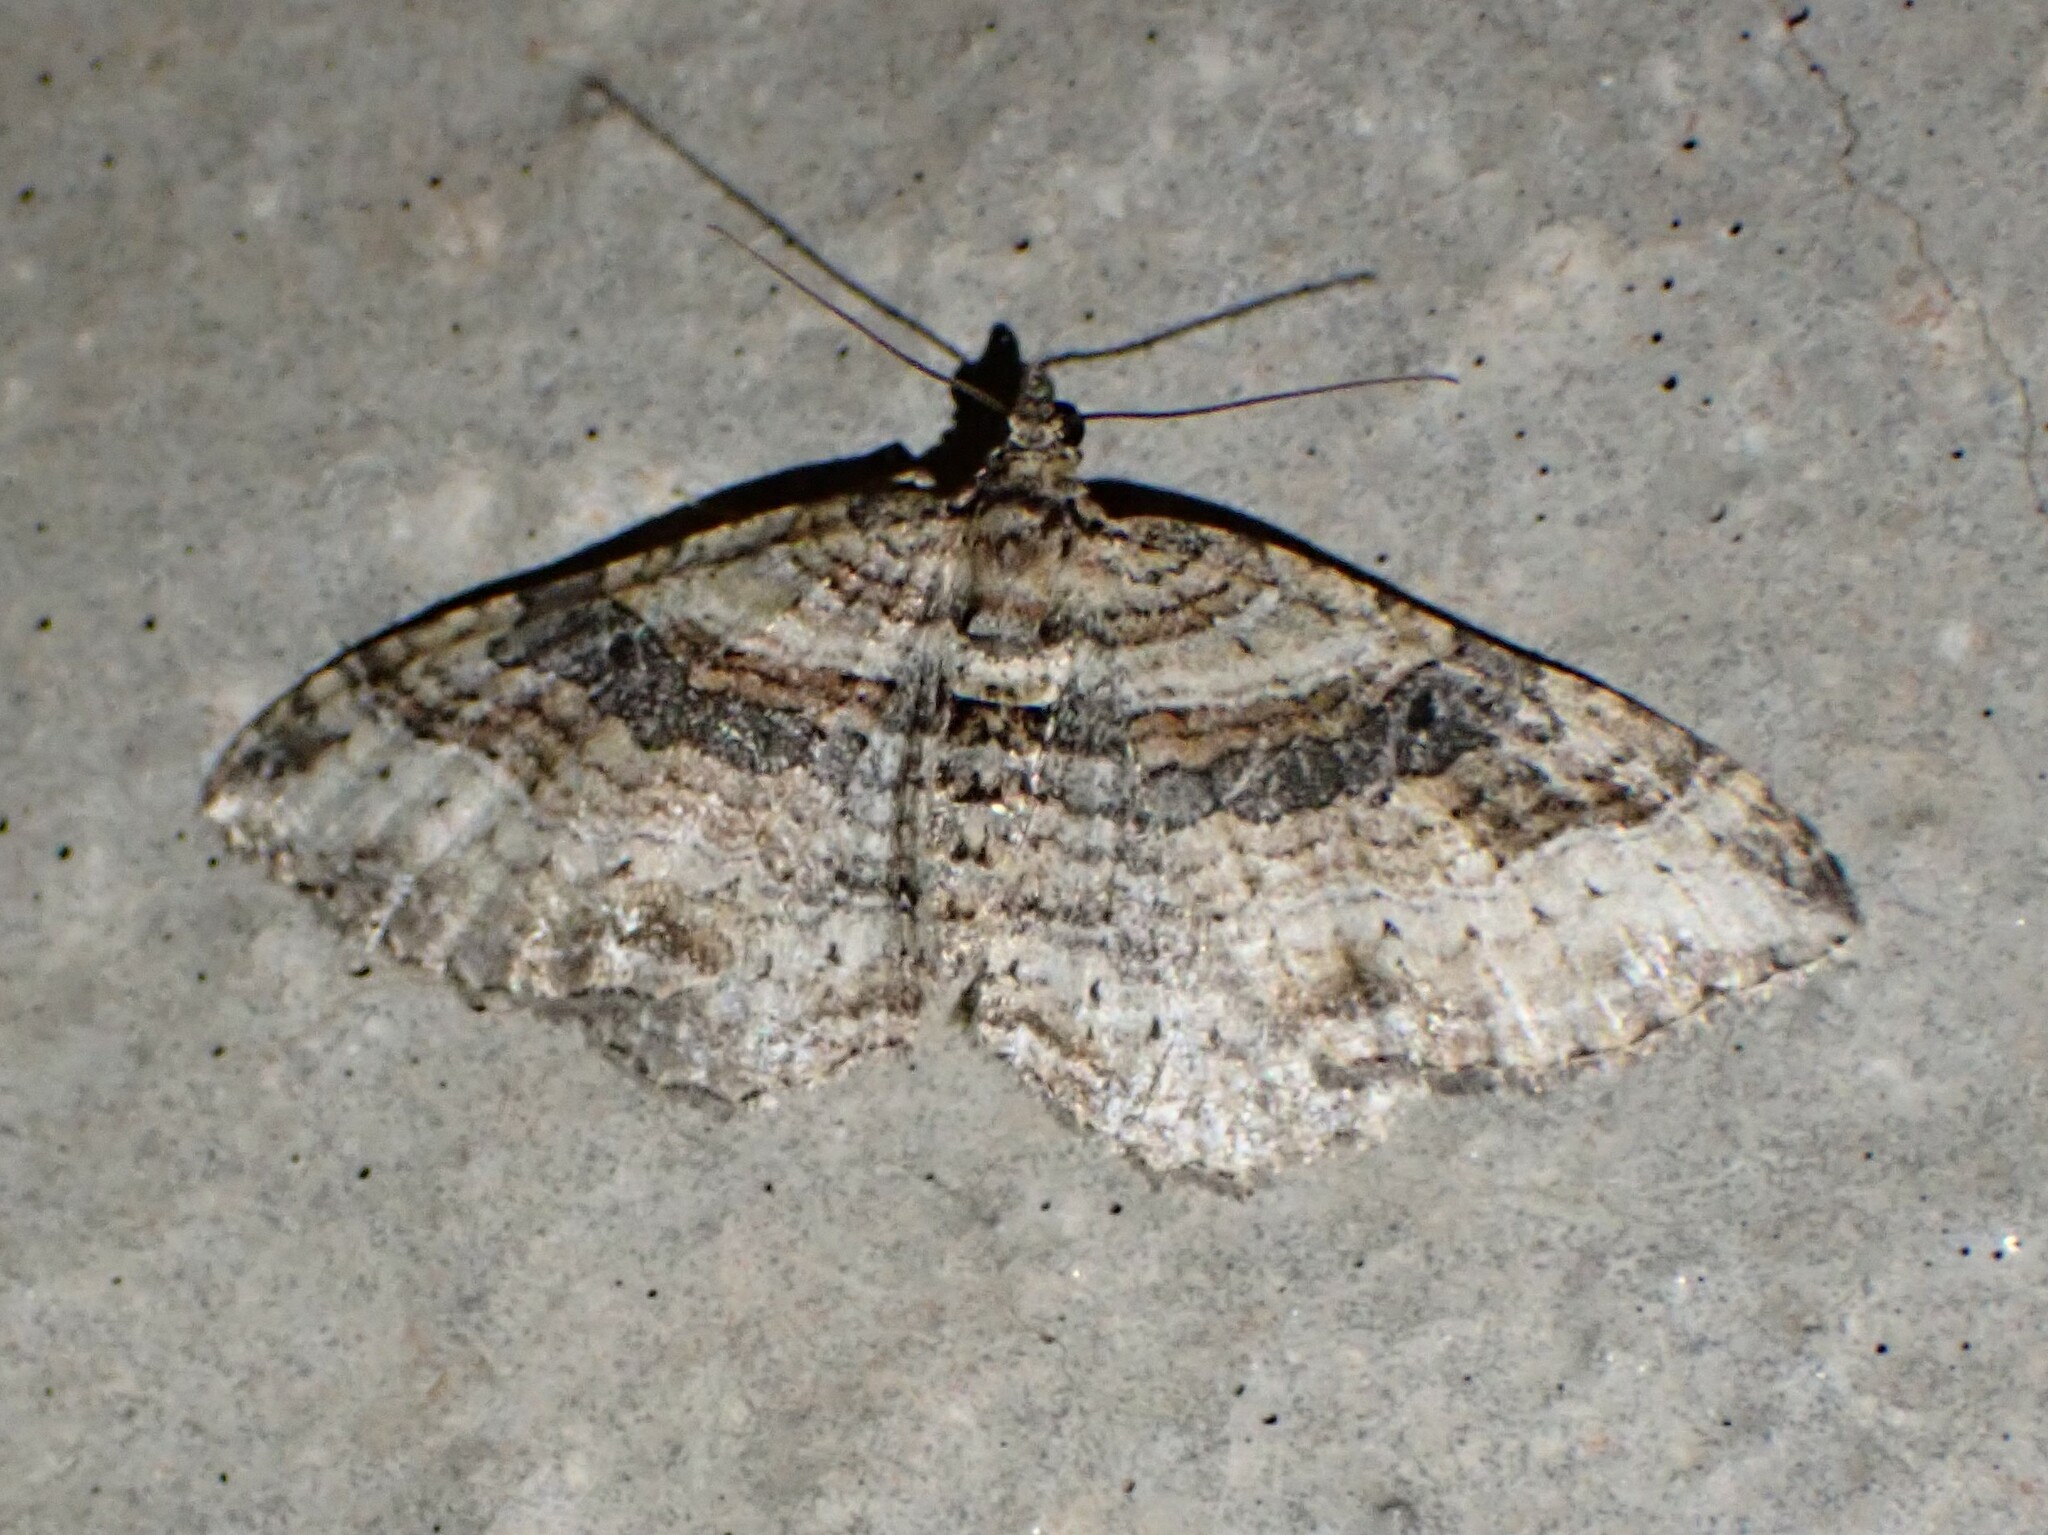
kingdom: Animalia
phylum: Arthropoda
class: Insecta
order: Lepidoptera
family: Geometridae
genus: Costaconvexa
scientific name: Costaconvexa centrostrigaria
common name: Bent-line carpet
